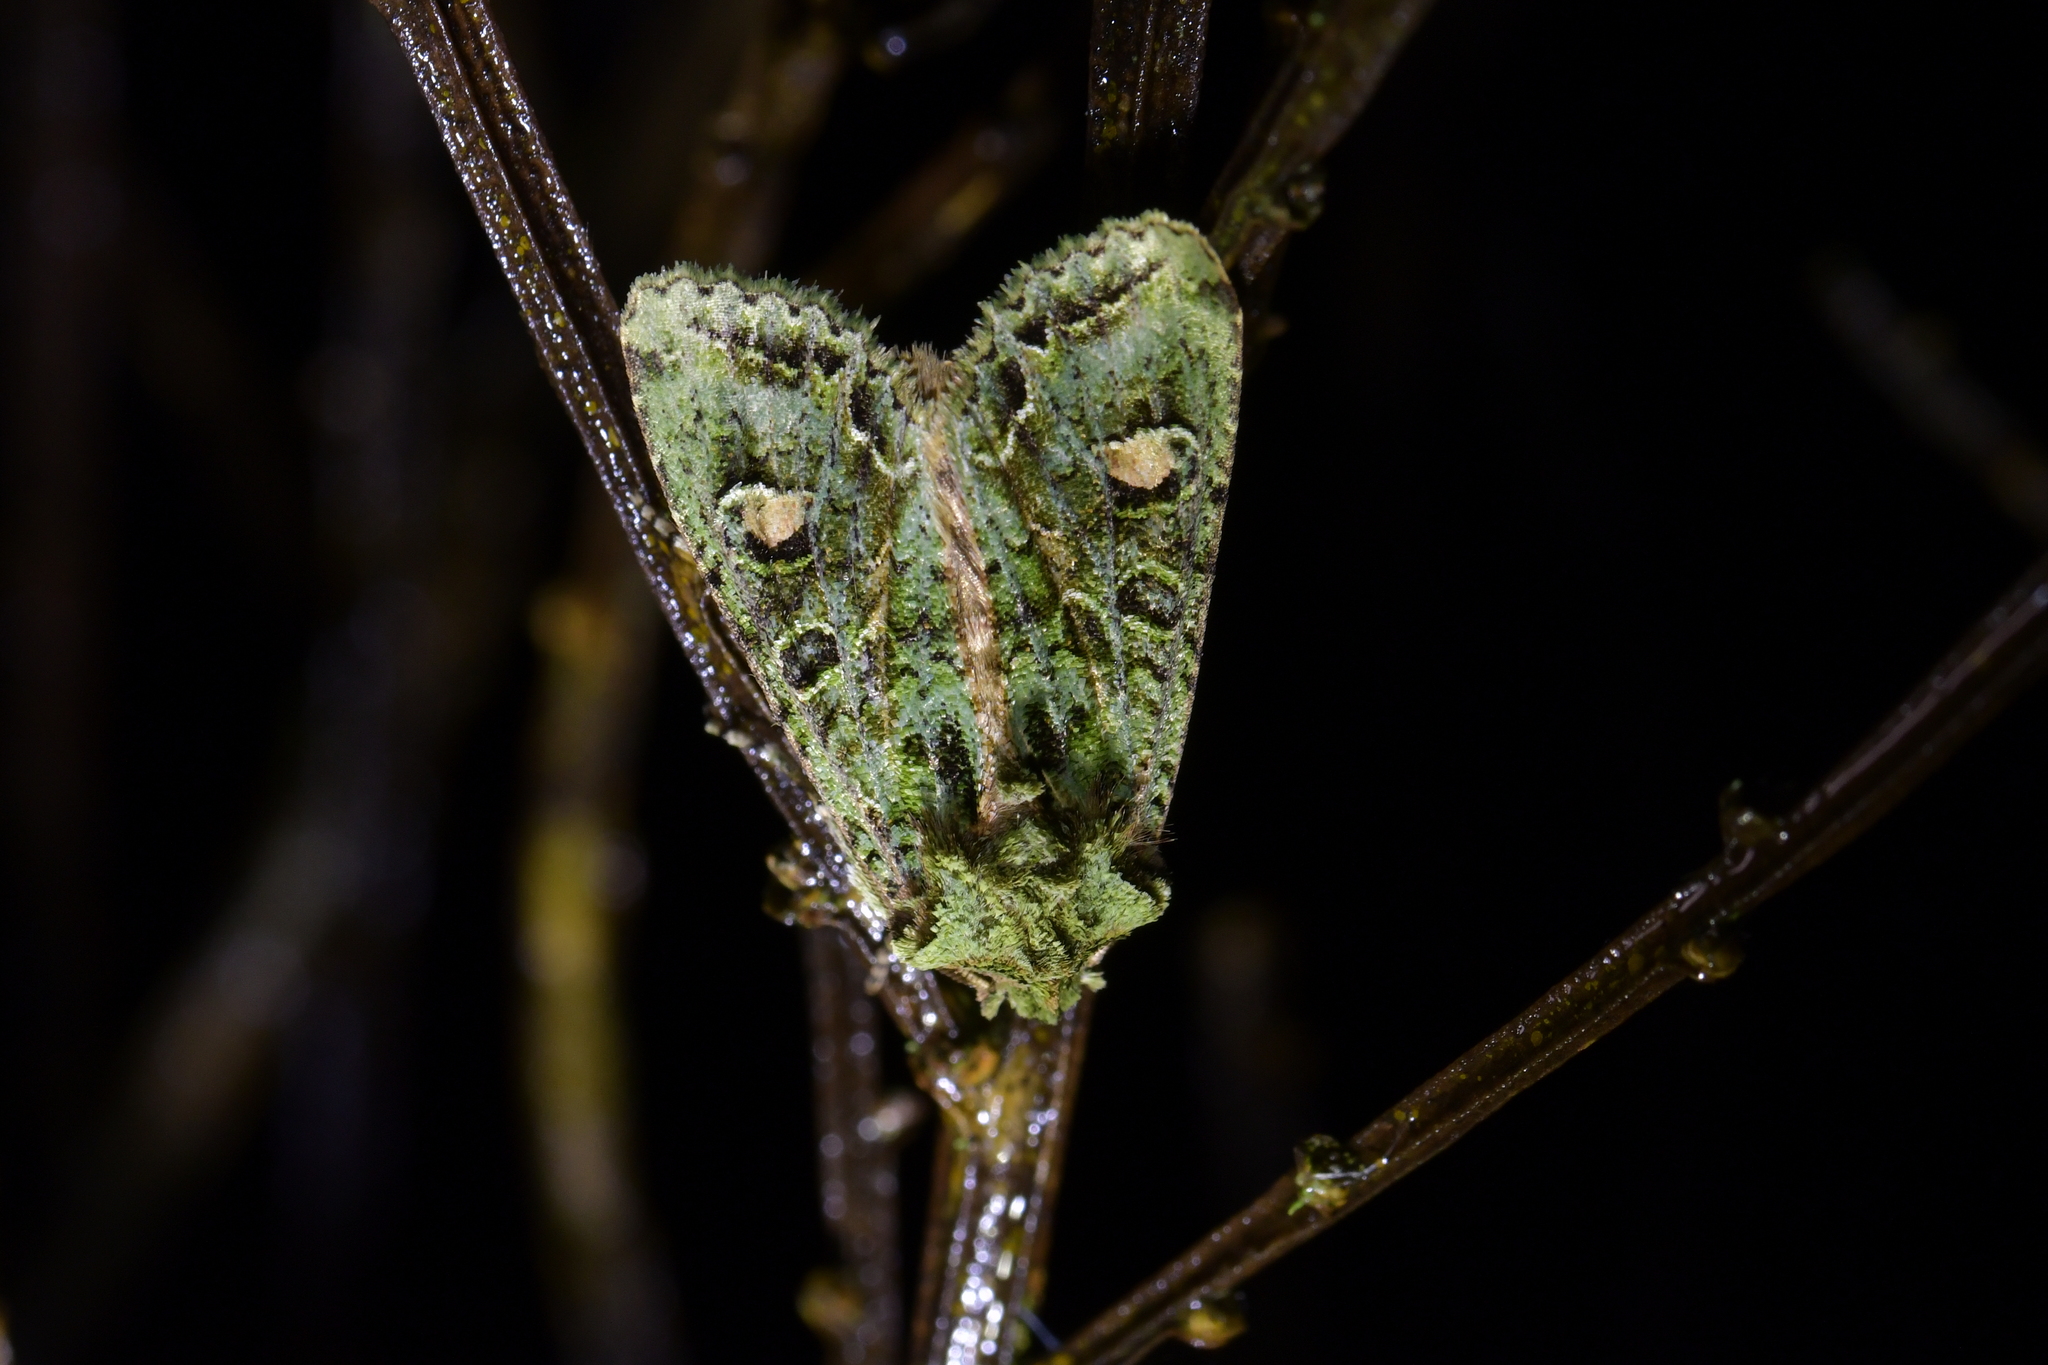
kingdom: Animalia
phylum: Arthropoda
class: Insecta
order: Lepidoptera
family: Noctuidae
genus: Ichneutica
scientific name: Ichneutica
